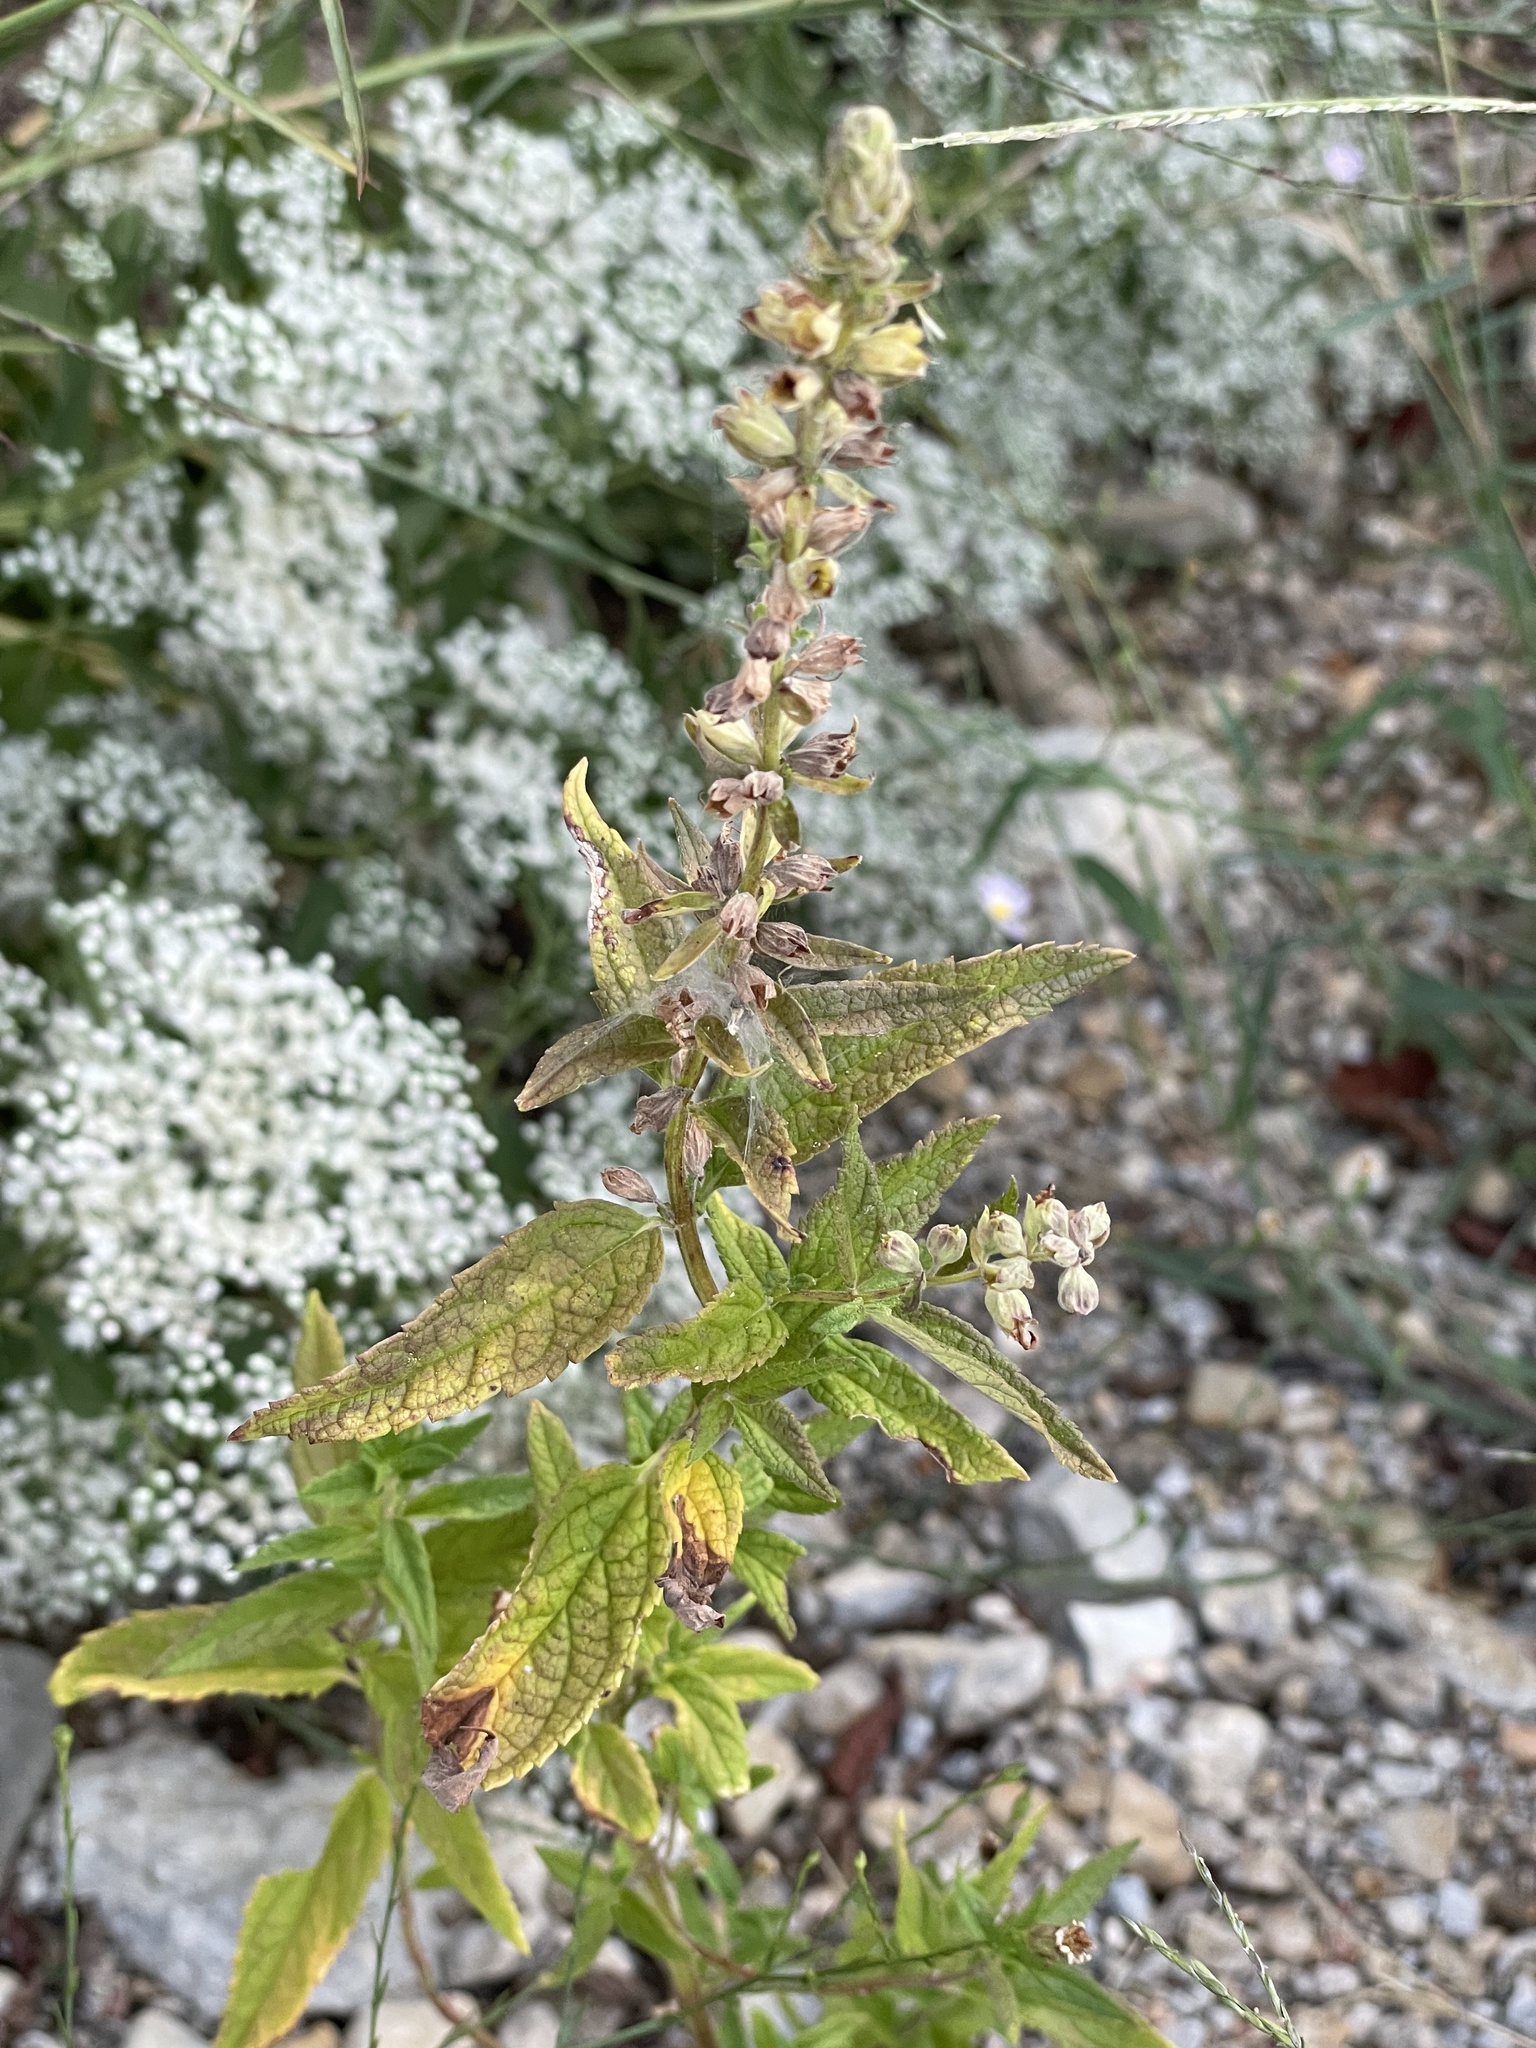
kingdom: Plantae
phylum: Tracheophyta
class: Magnoliopsida
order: Lamiales
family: Lamiaceae
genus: Teucrium
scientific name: Teucrium canadense
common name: American germander
